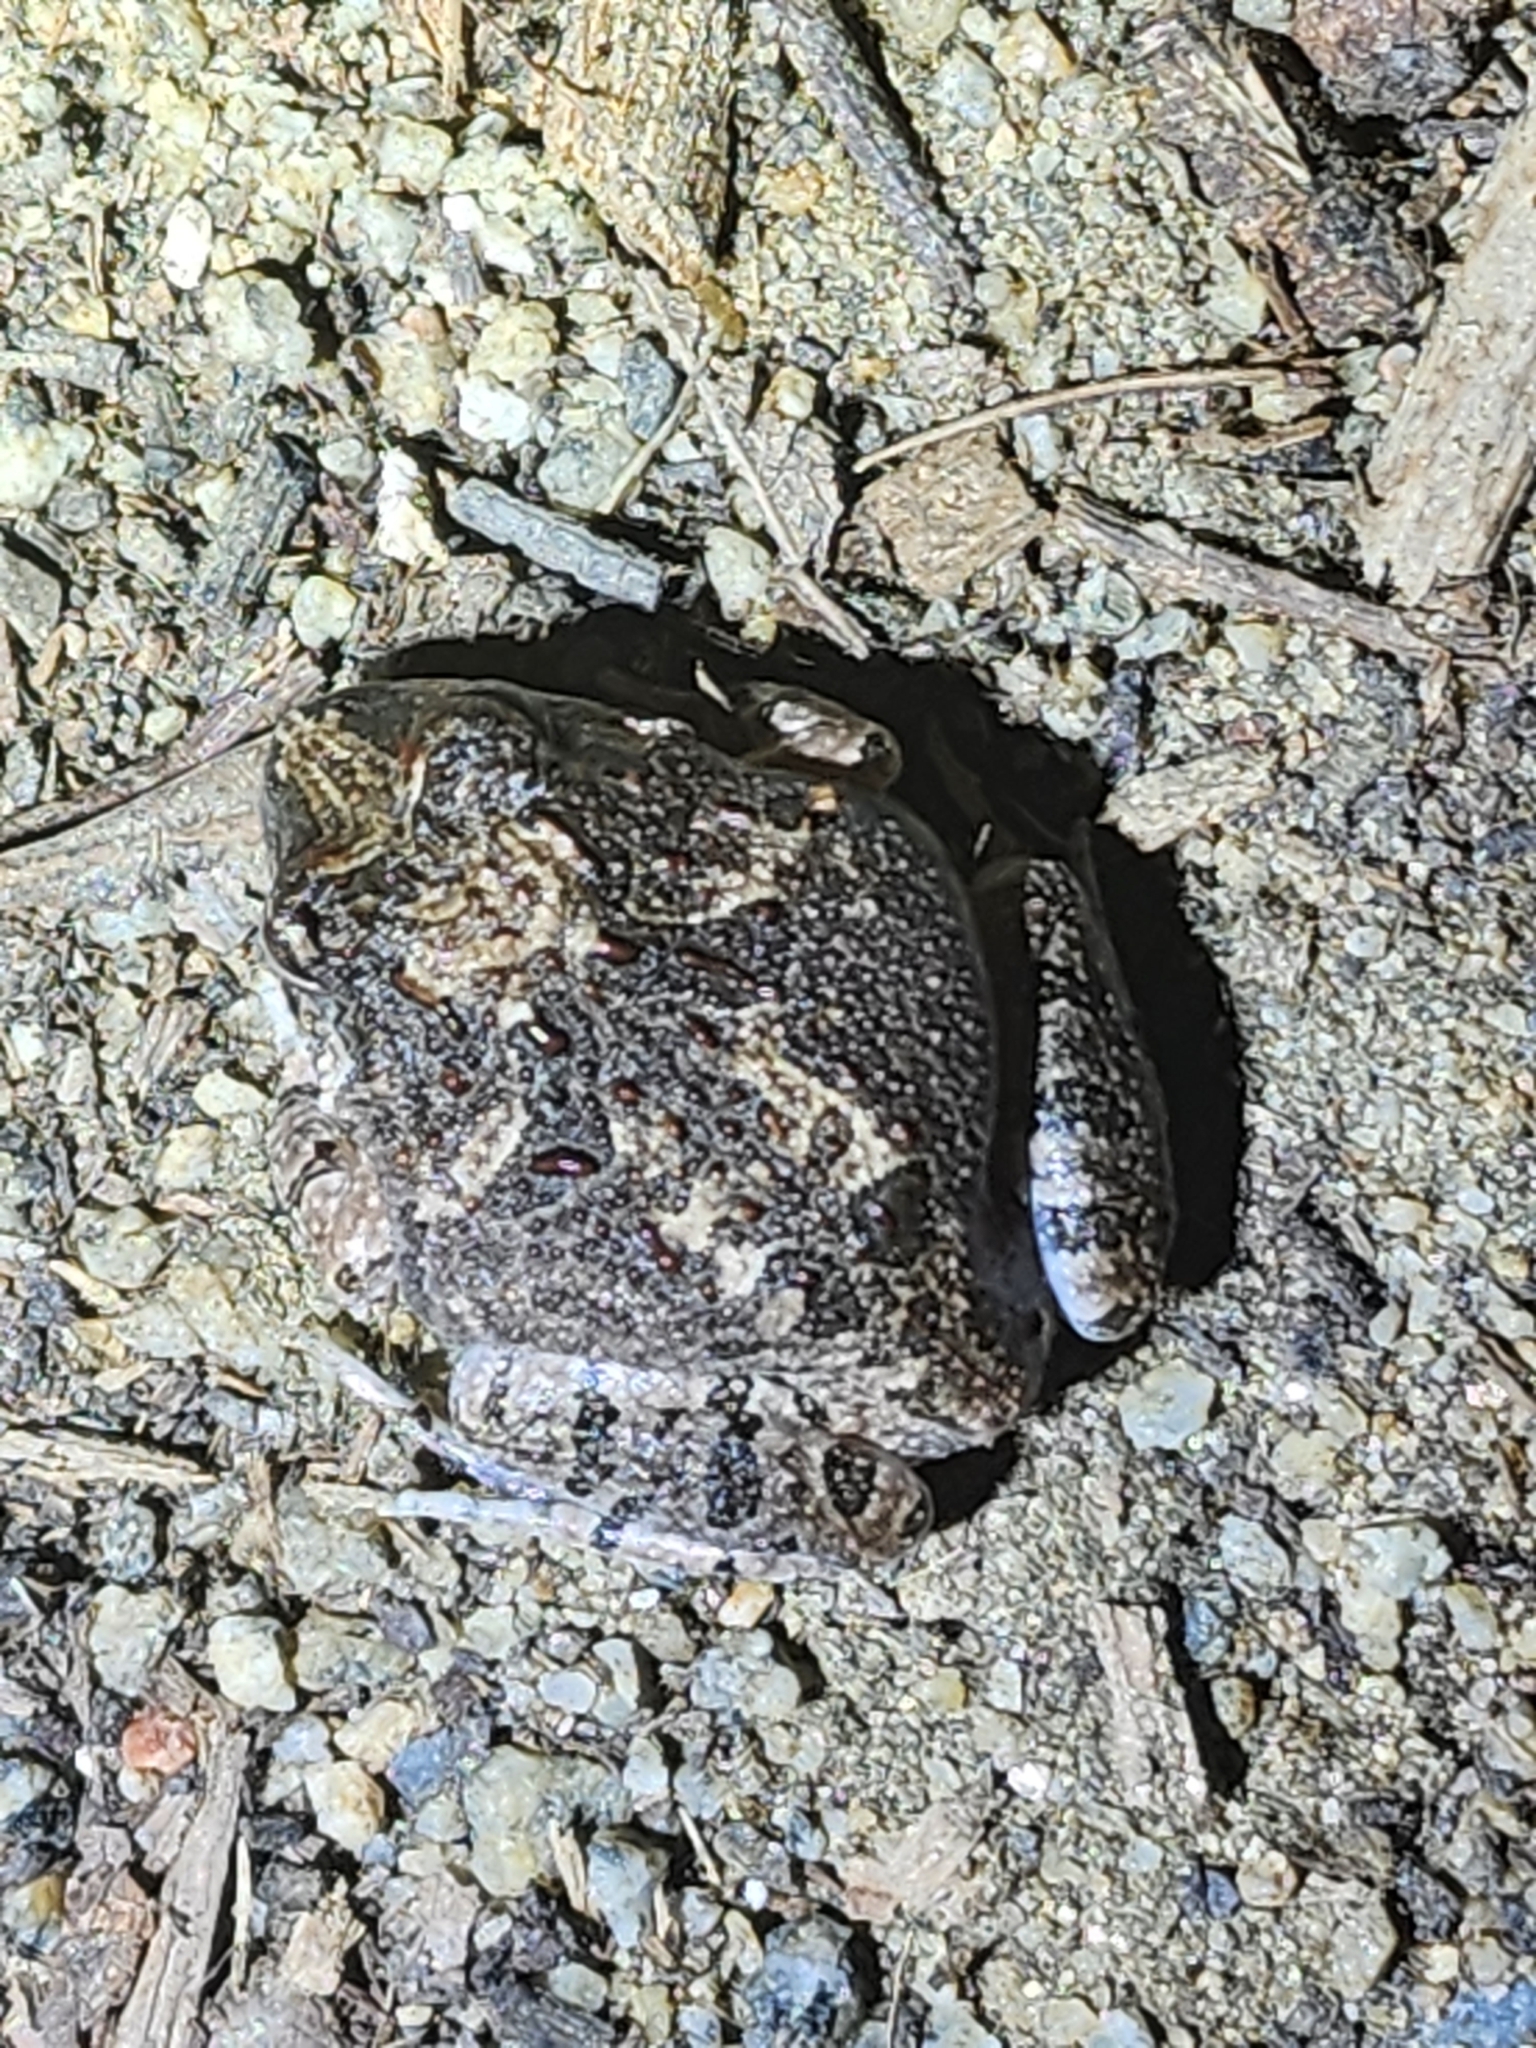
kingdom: Animalia
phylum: Chordata
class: Amphibia
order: Anura
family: Limnodynastidae
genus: Platyplectrum
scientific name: Platyplectrum ornatum
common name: Ornate burrowing frog
